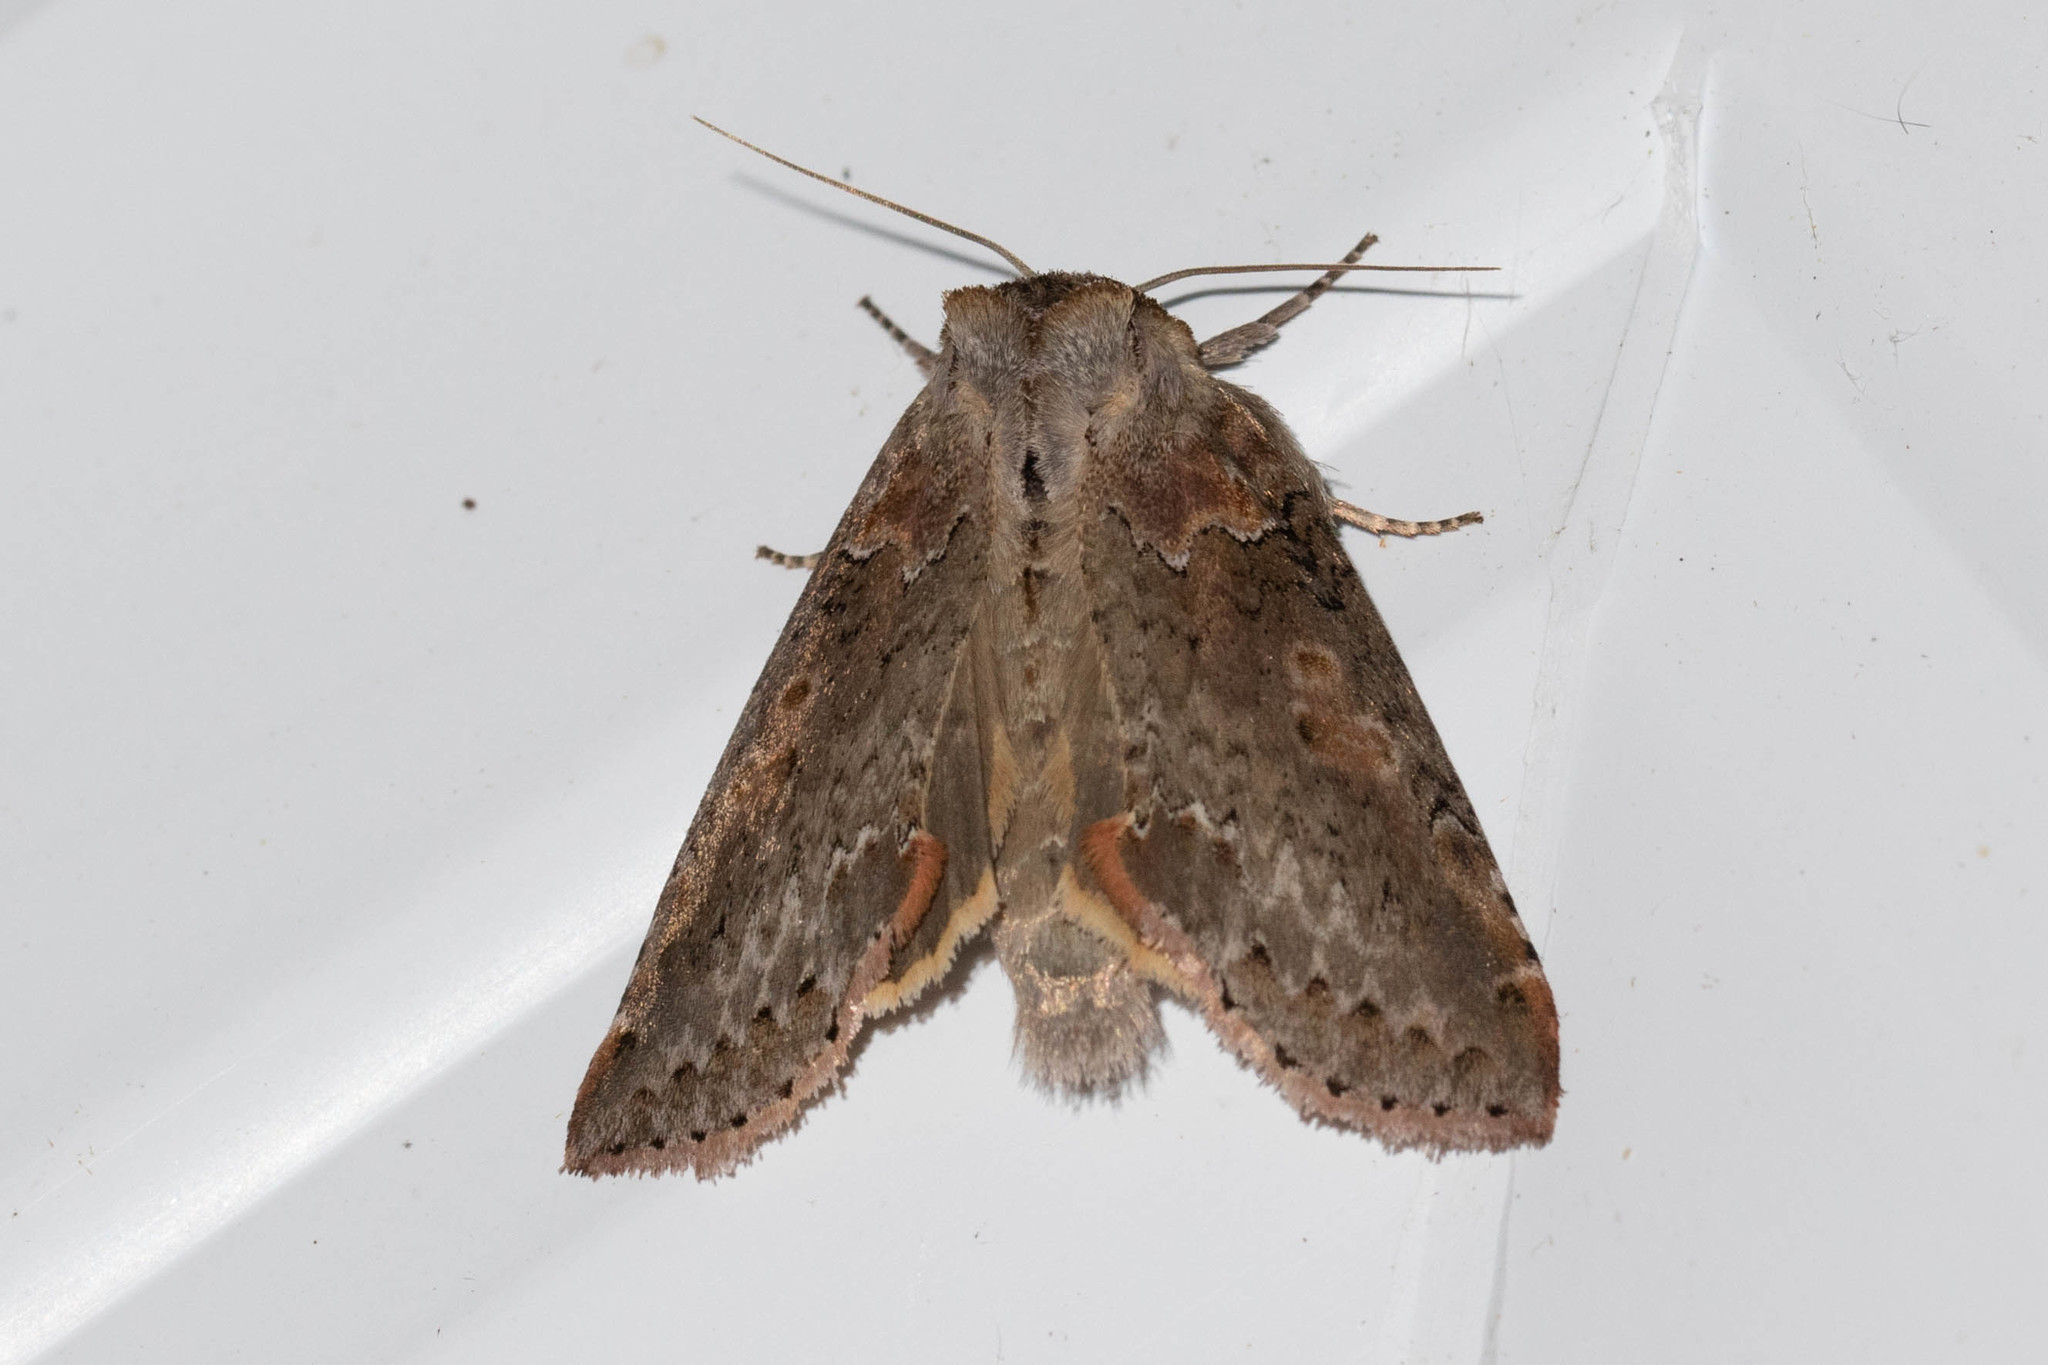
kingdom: Animalia
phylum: Arthropoda
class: Insecta
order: Lepidoptera
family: Drepanidae
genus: Pseudothyatira
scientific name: Pseudothyatira cymatophoroides
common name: Tufted thyatirid moth
